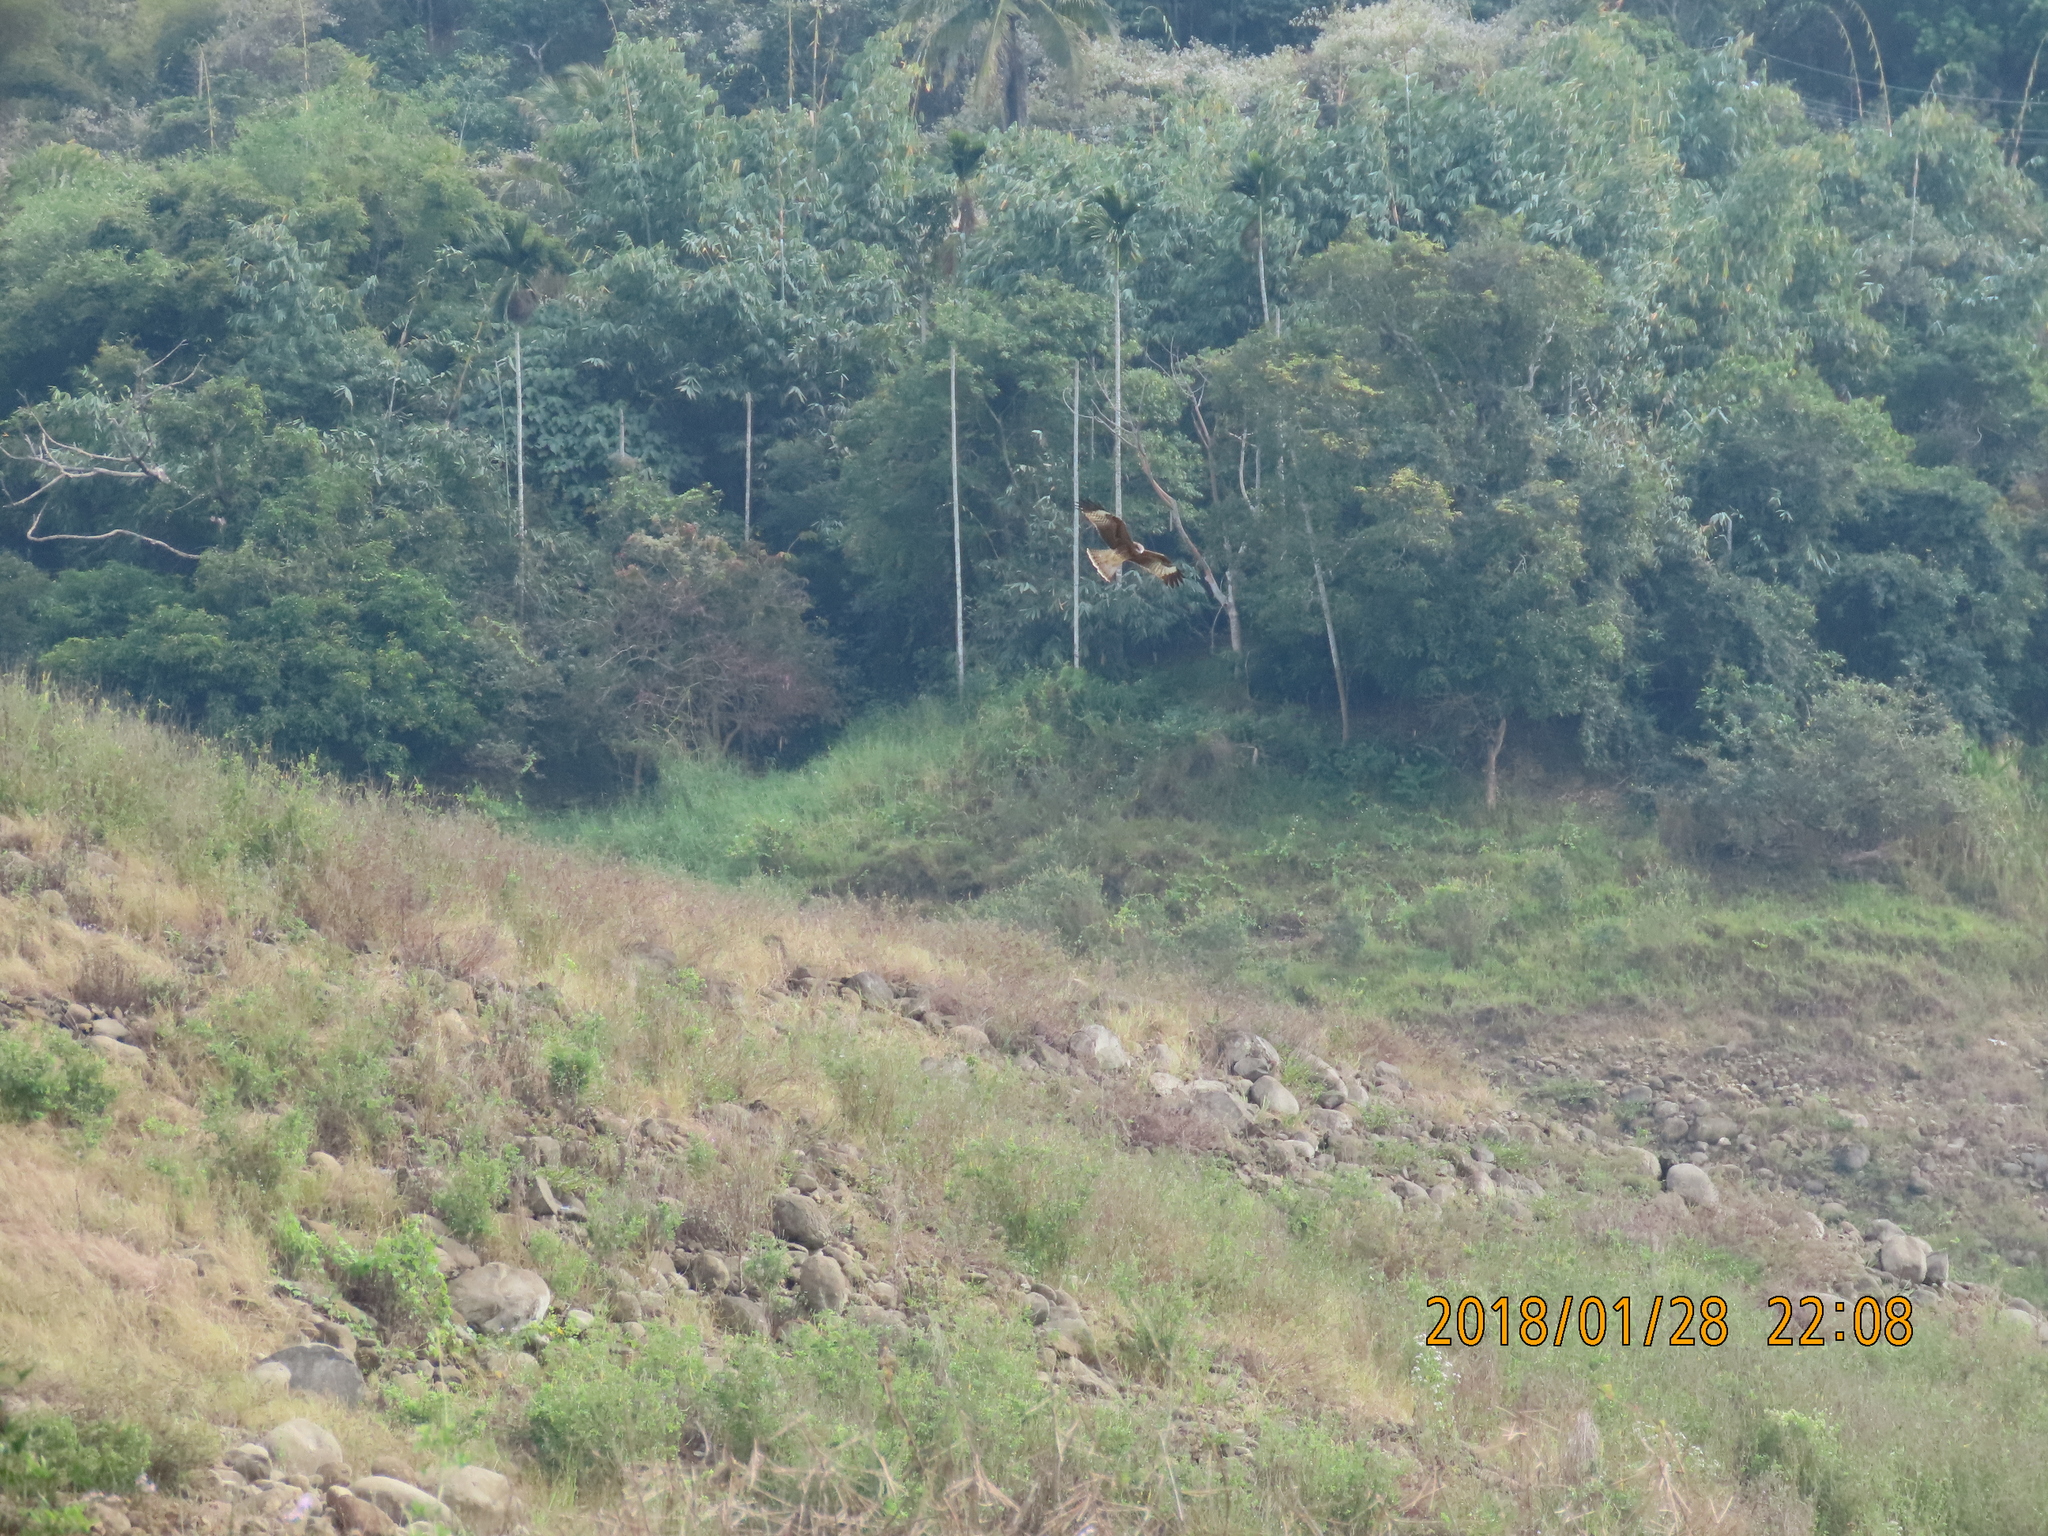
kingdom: Animalia
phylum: Chordata
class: Aves
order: Accipitriformes
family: Accipitridae
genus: Milvus
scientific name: Milvus migrans
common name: Black kite
